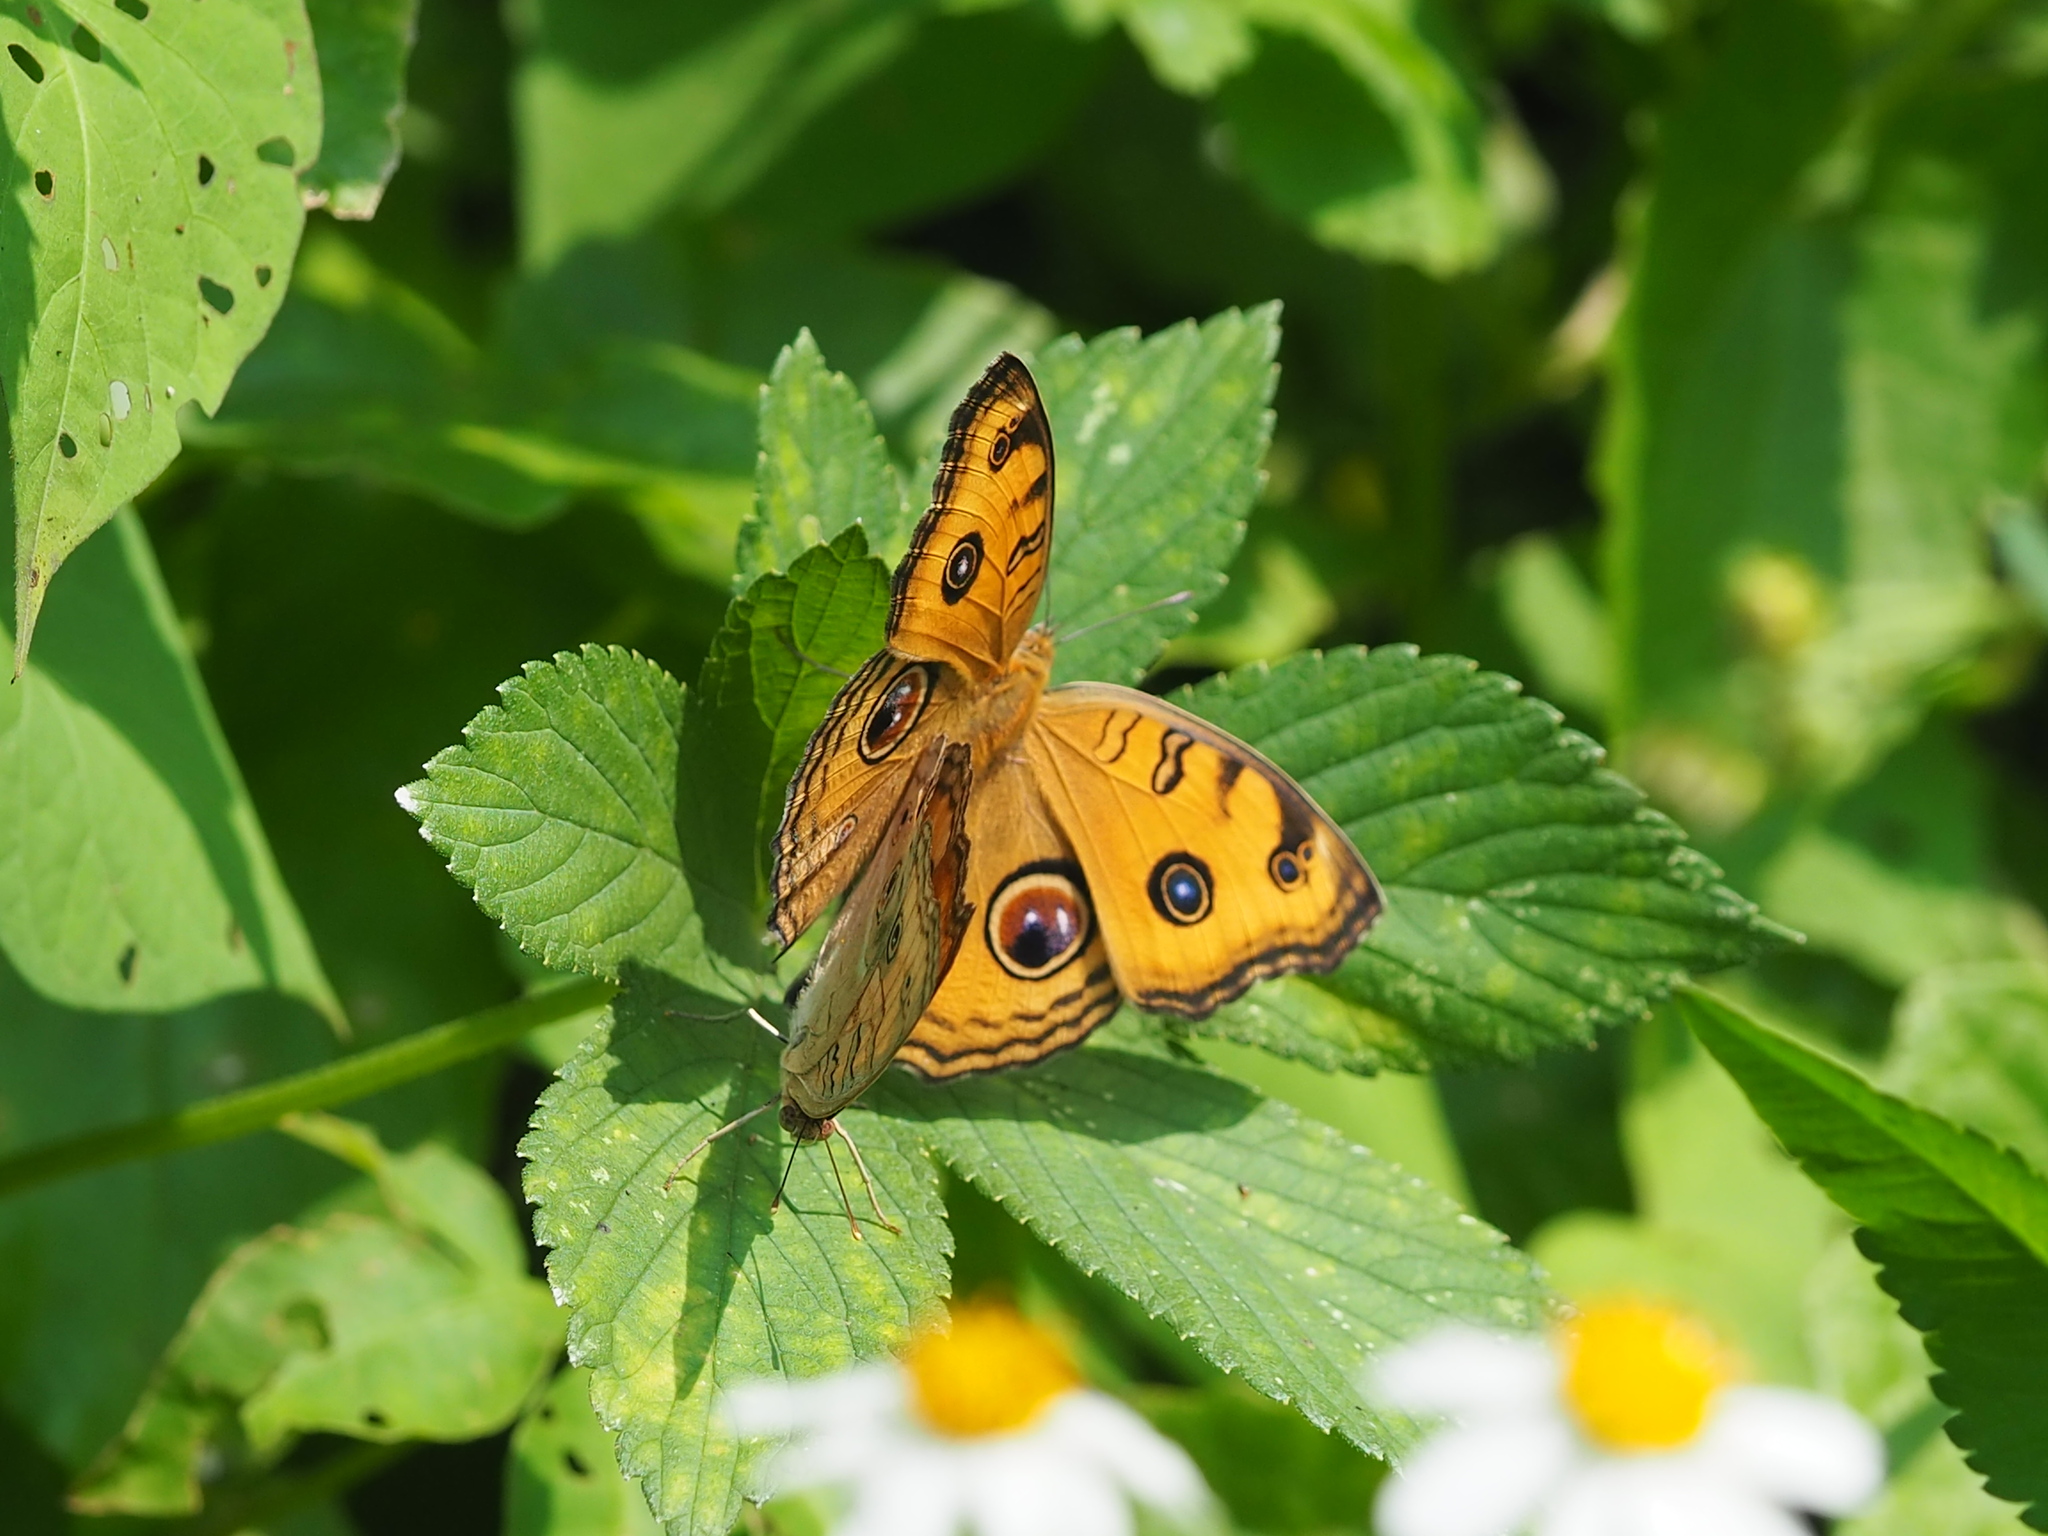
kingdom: Animalia
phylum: Arthropoda
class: Insecta
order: Lepidoptera
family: Nymphalidae
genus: Junonia
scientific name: Junonia almana
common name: Peacock pansy
